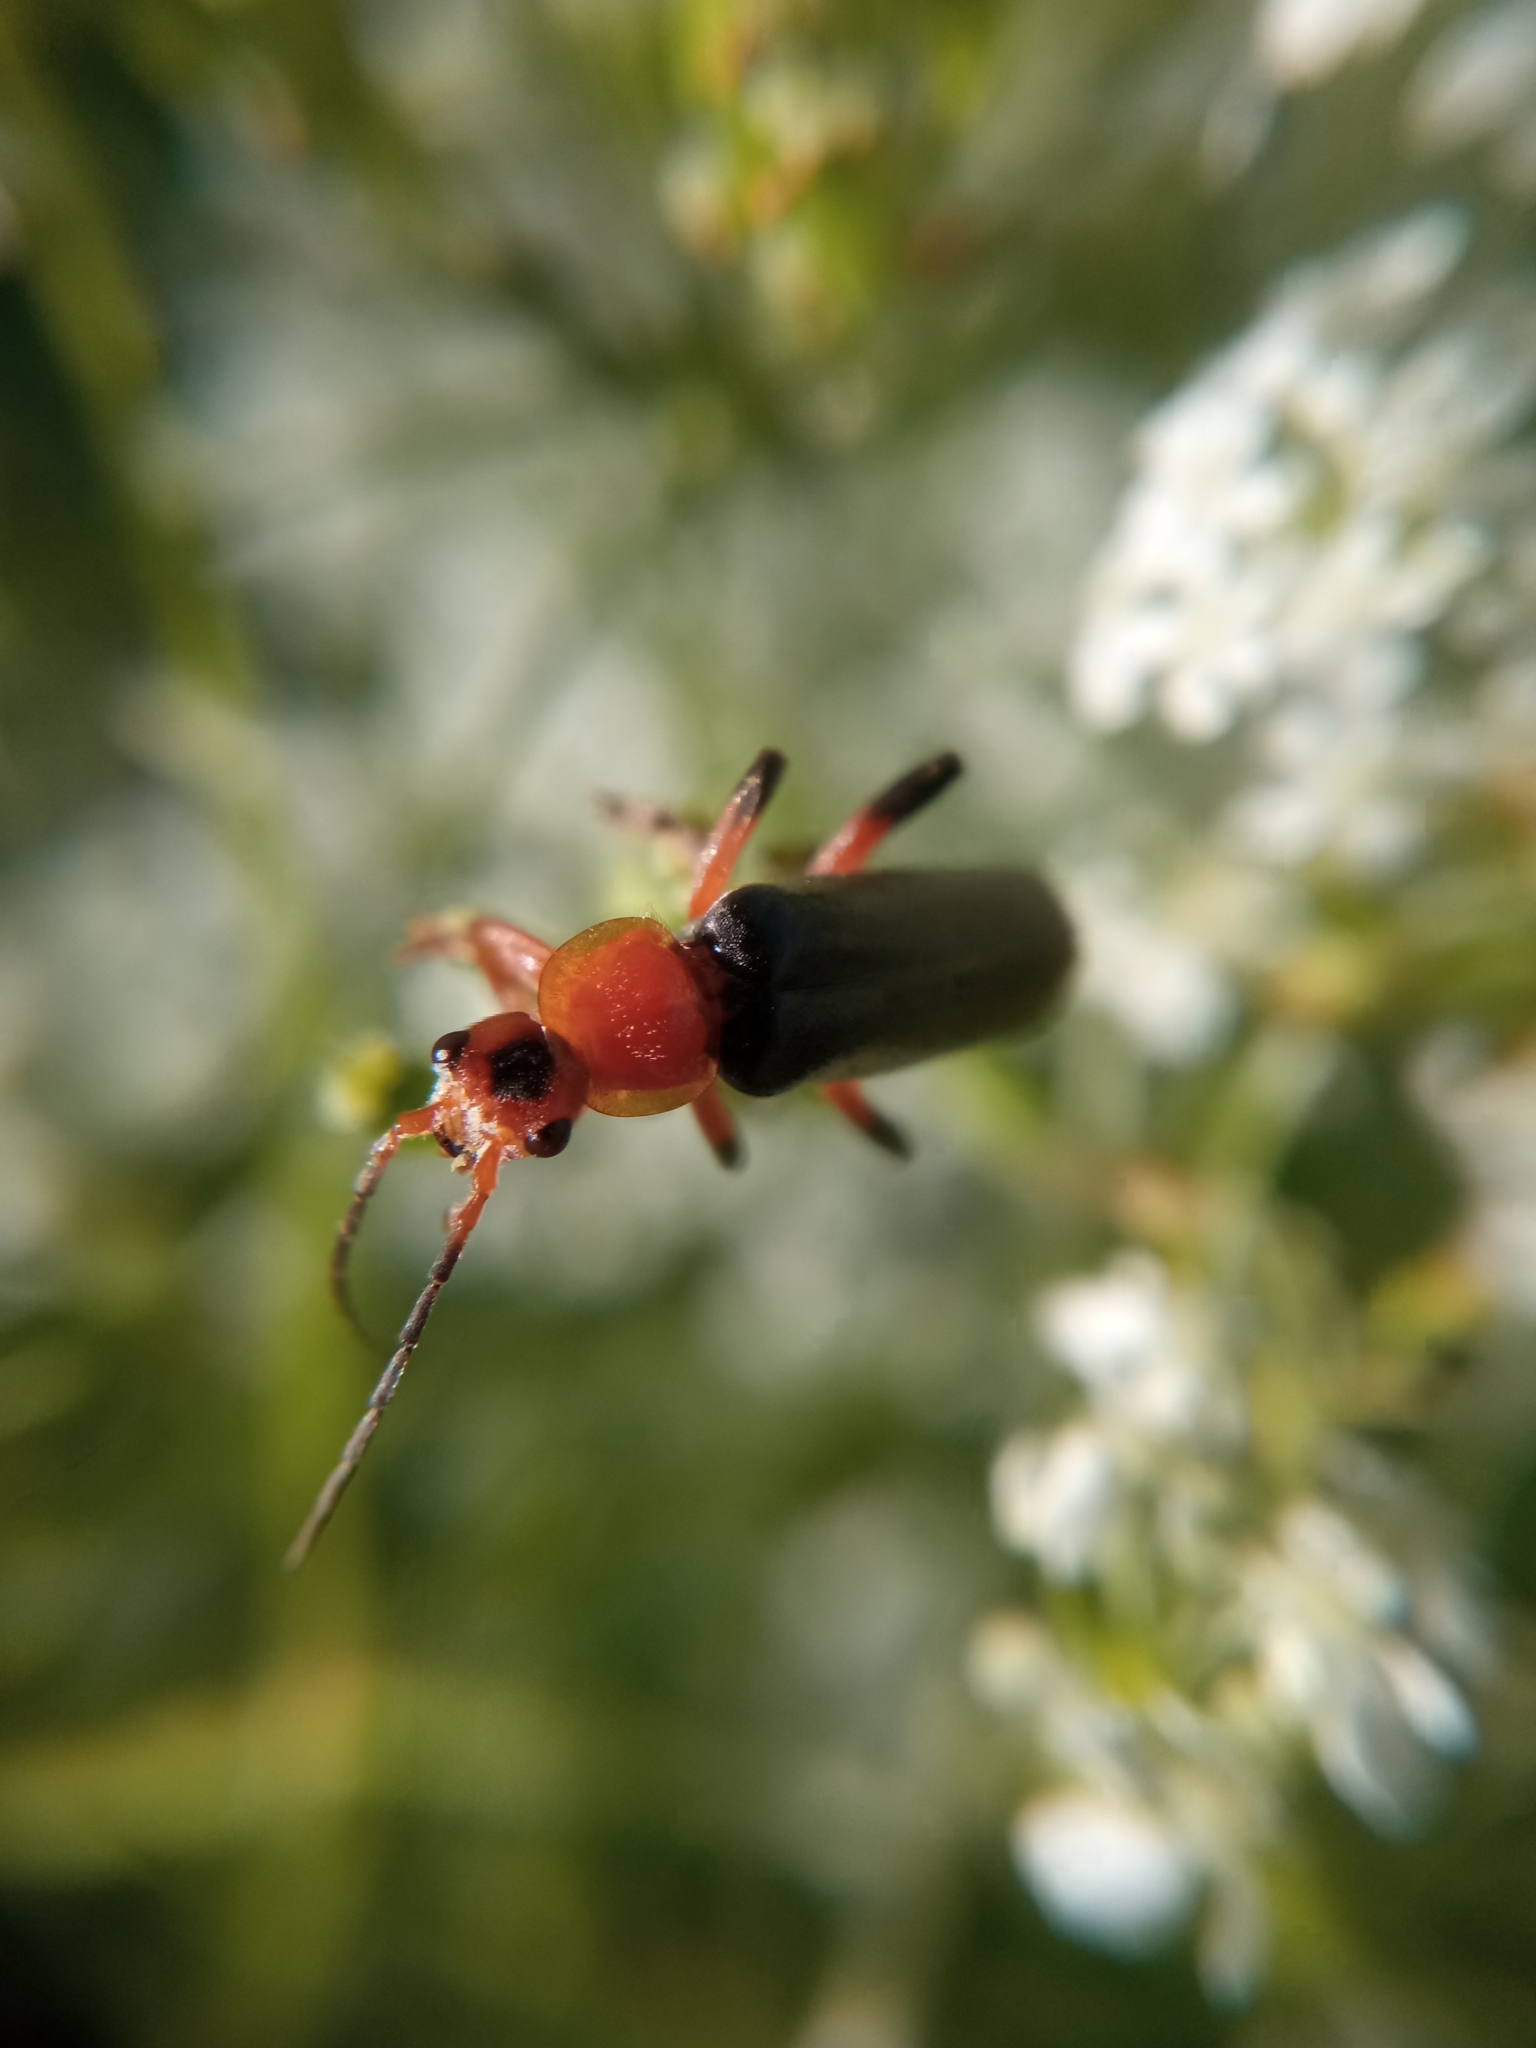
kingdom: Animalia
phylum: Arthropoda
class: Insecta
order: Coleoptera
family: Cantharidae
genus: Cantharis
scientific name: Cantharis livida
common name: Livid soldier beetle
